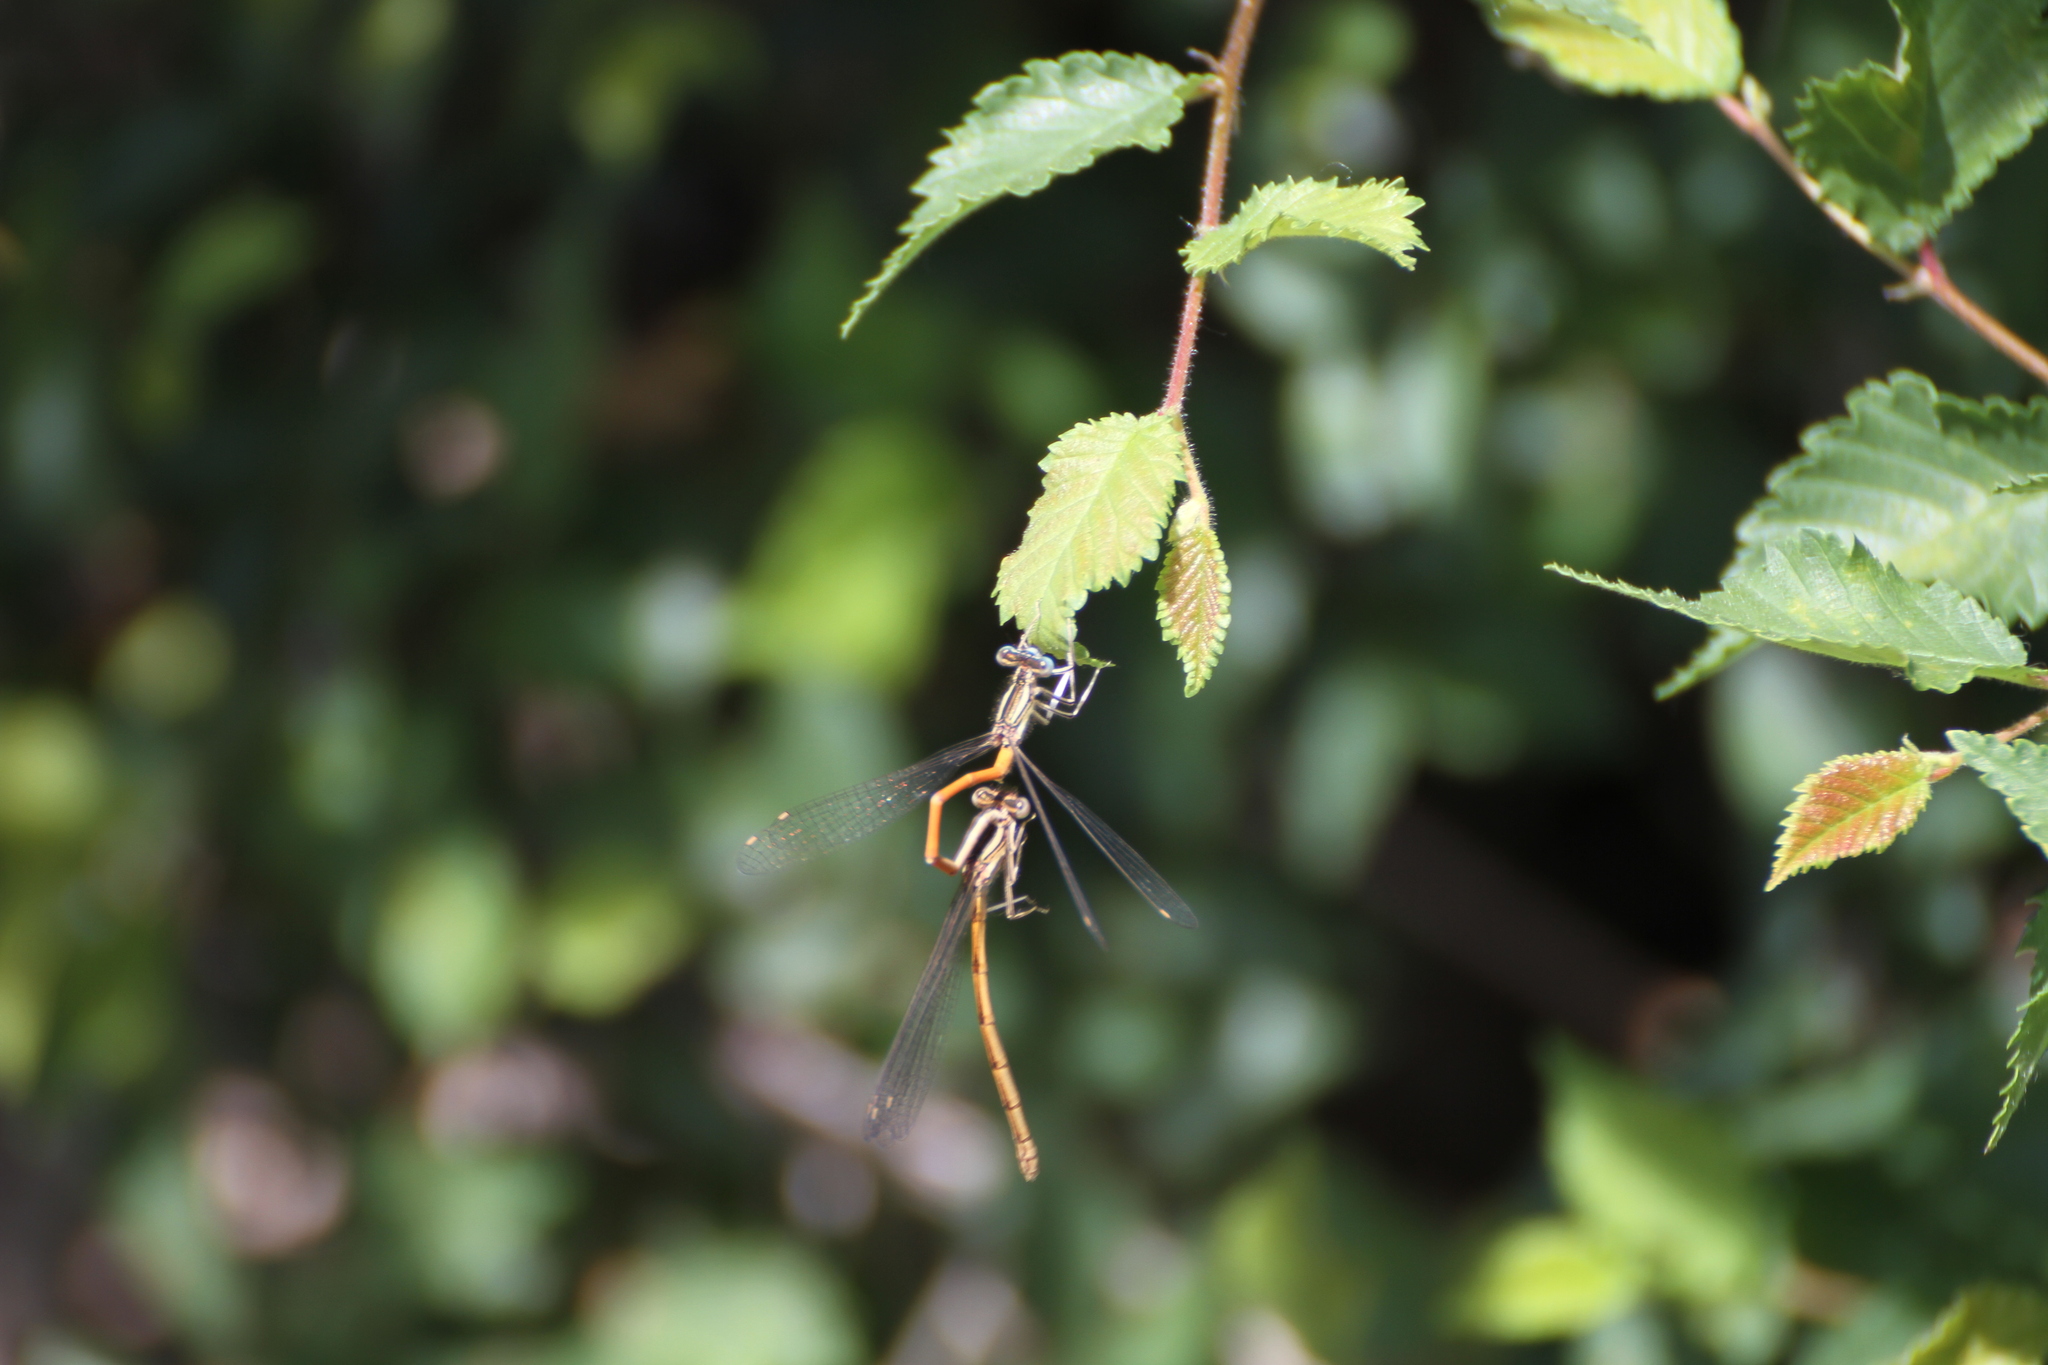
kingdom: Animalia
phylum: Arthropoda
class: Insecta
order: Odonata
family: Platycnemididae
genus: Platycnemis
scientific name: Platycnemis acutipennis
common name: Orange featherleg
